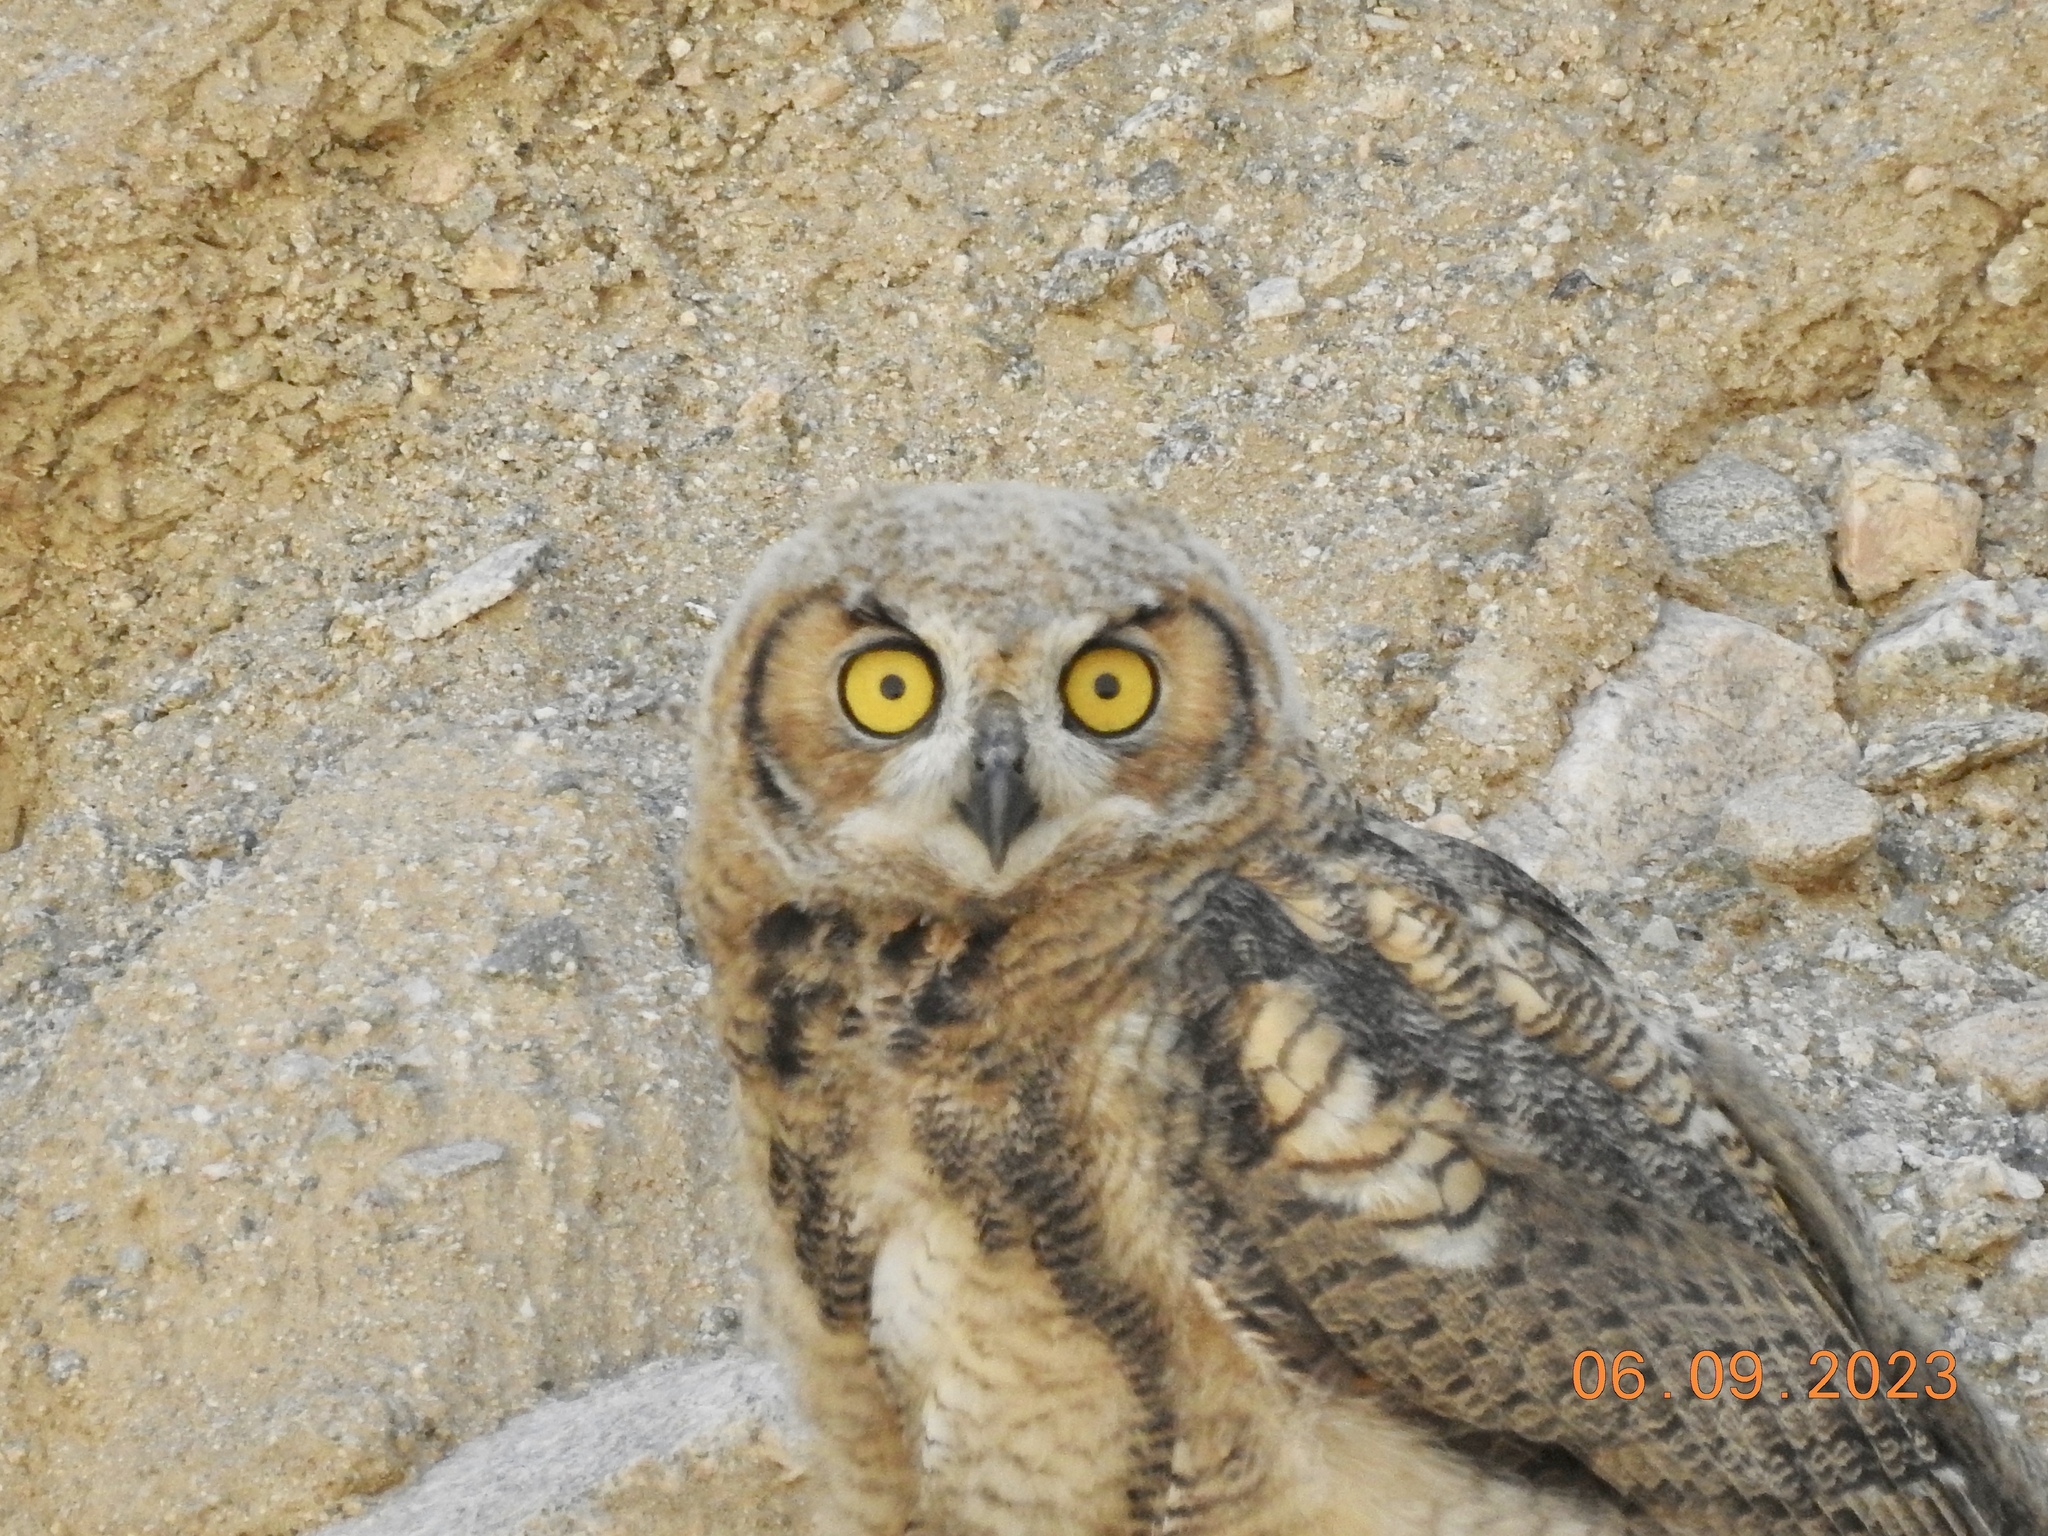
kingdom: Animalia
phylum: Chordata
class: Aves
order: Strigiformes
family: Strigidae
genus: Bubo
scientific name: Bubo virginianus
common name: Great horned owl
